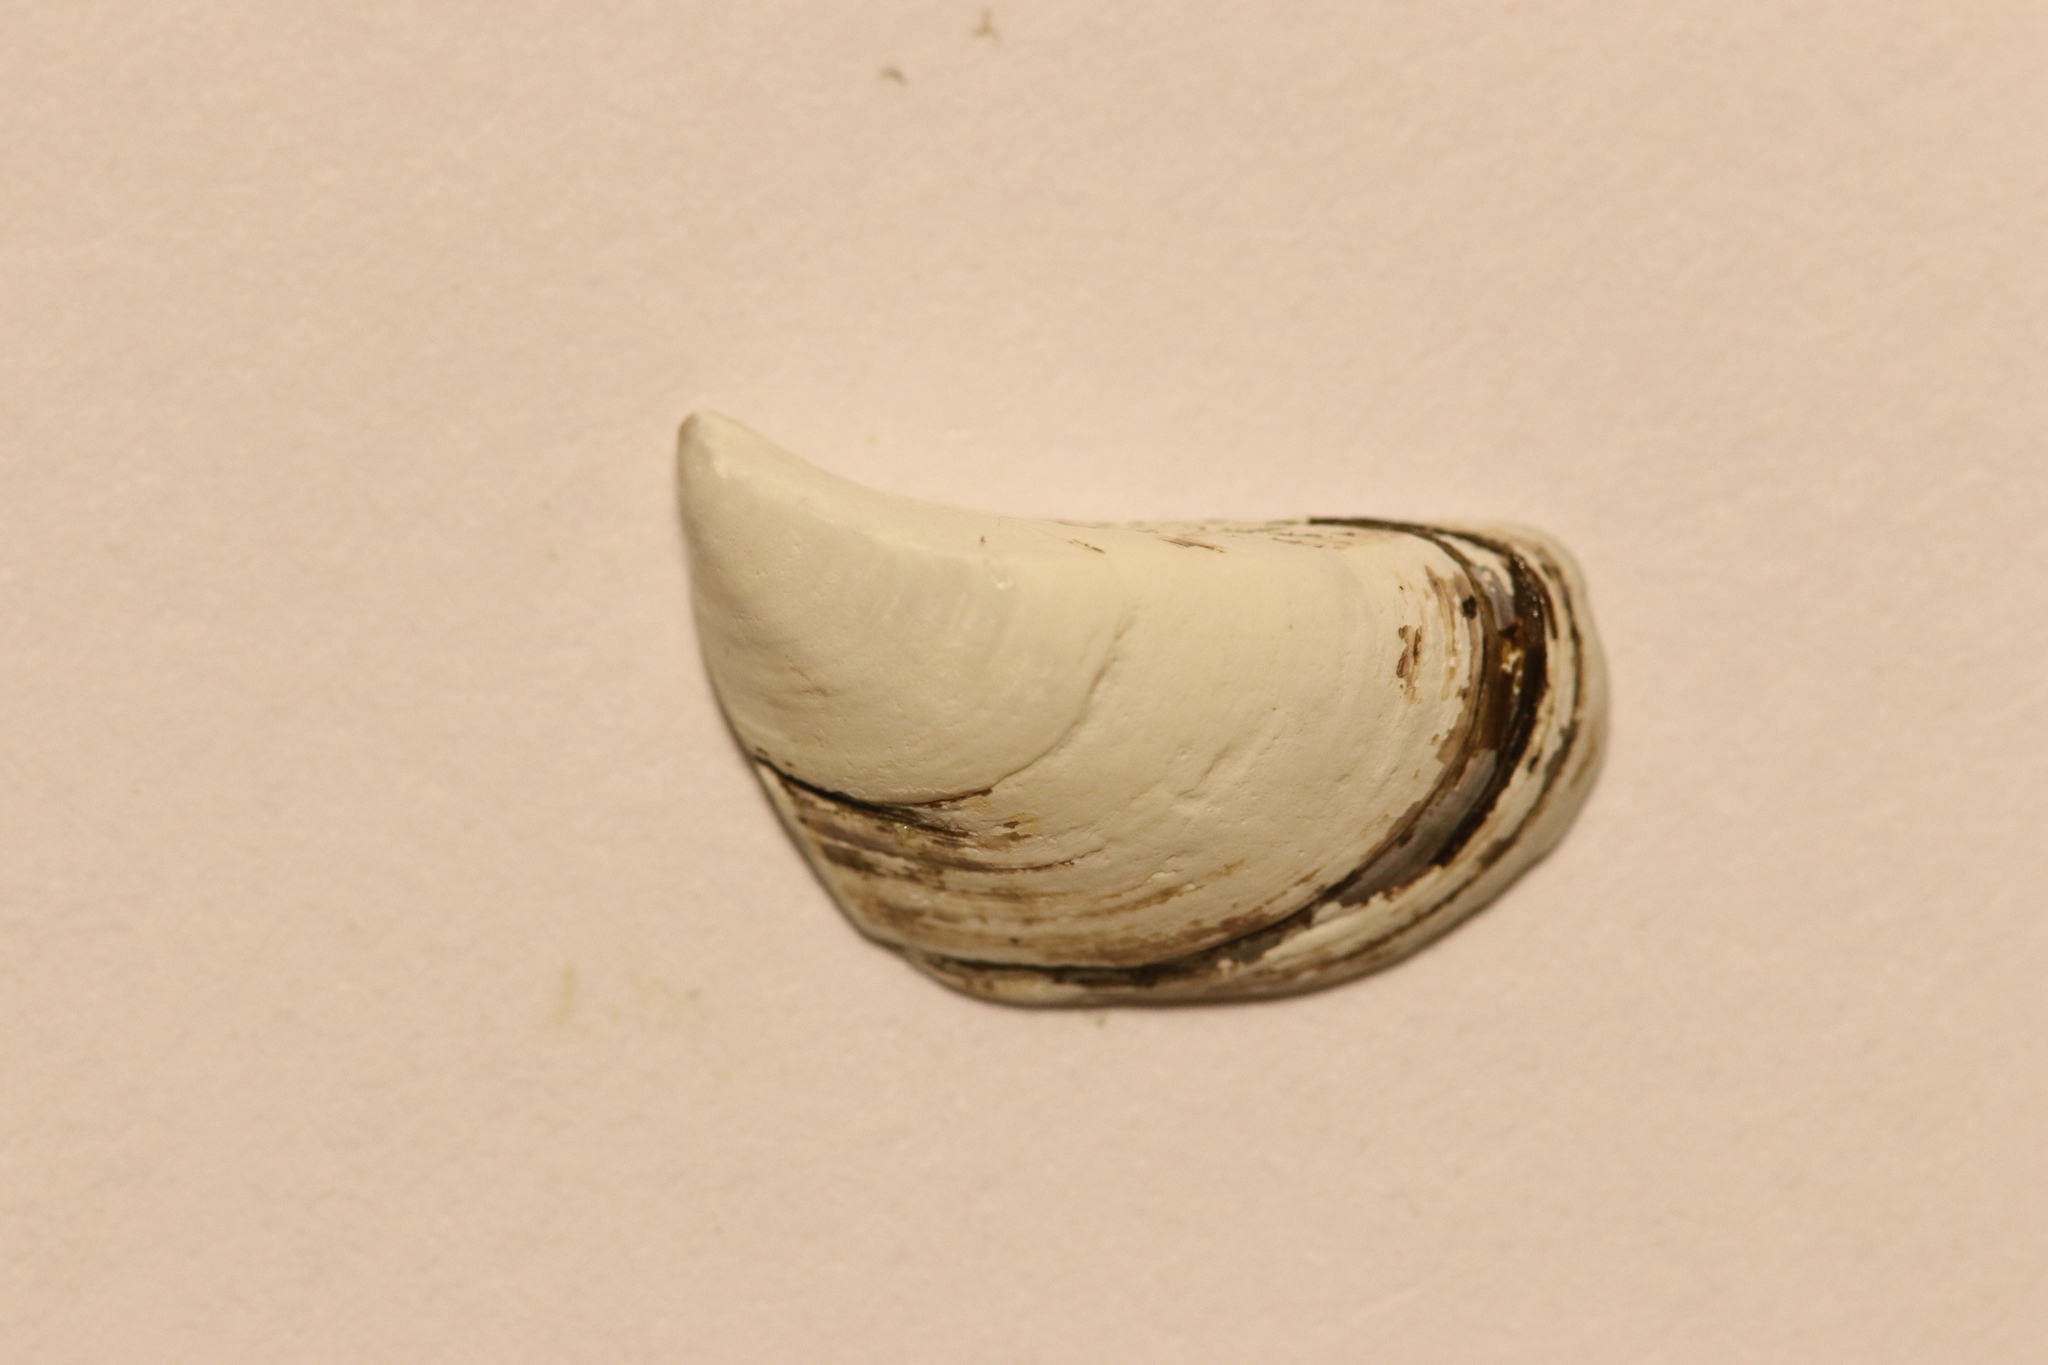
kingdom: Animalia
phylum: Mollusca
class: Bivalvia
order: Myida
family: Dreissenidae
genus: Dreissena
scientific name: Dreissena polymorpha
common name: Zebra mussel
